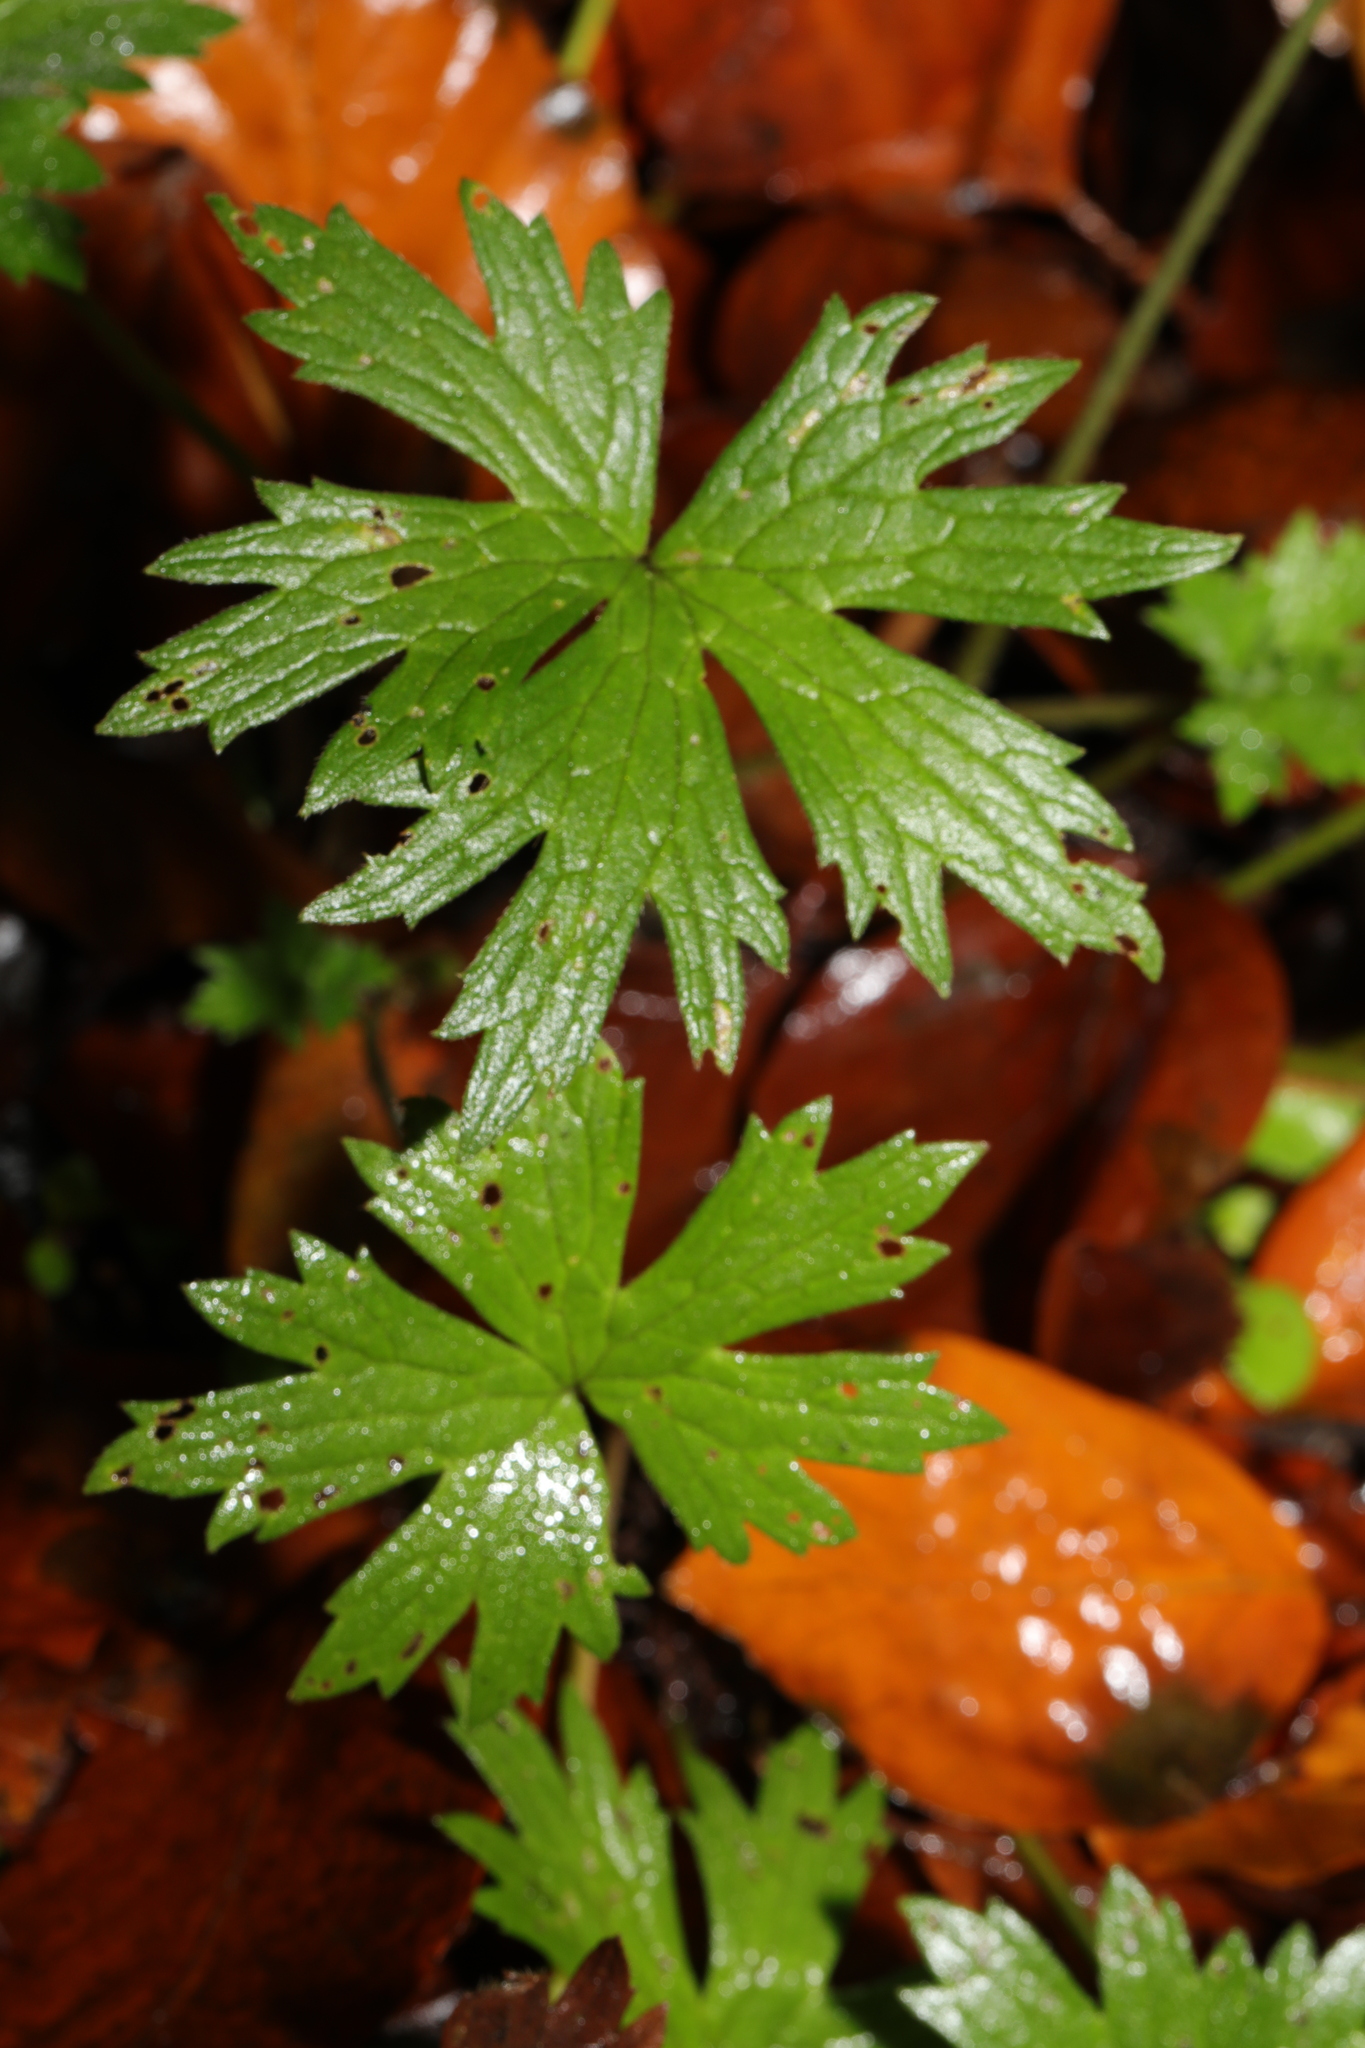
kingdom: Plantae
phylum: Tracheophyta
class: Magnoliopsida
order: Ranunculales
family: Ranunculaceae
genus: Ranunculus
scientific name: Ranunculus acris
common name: Meadow buttercup
